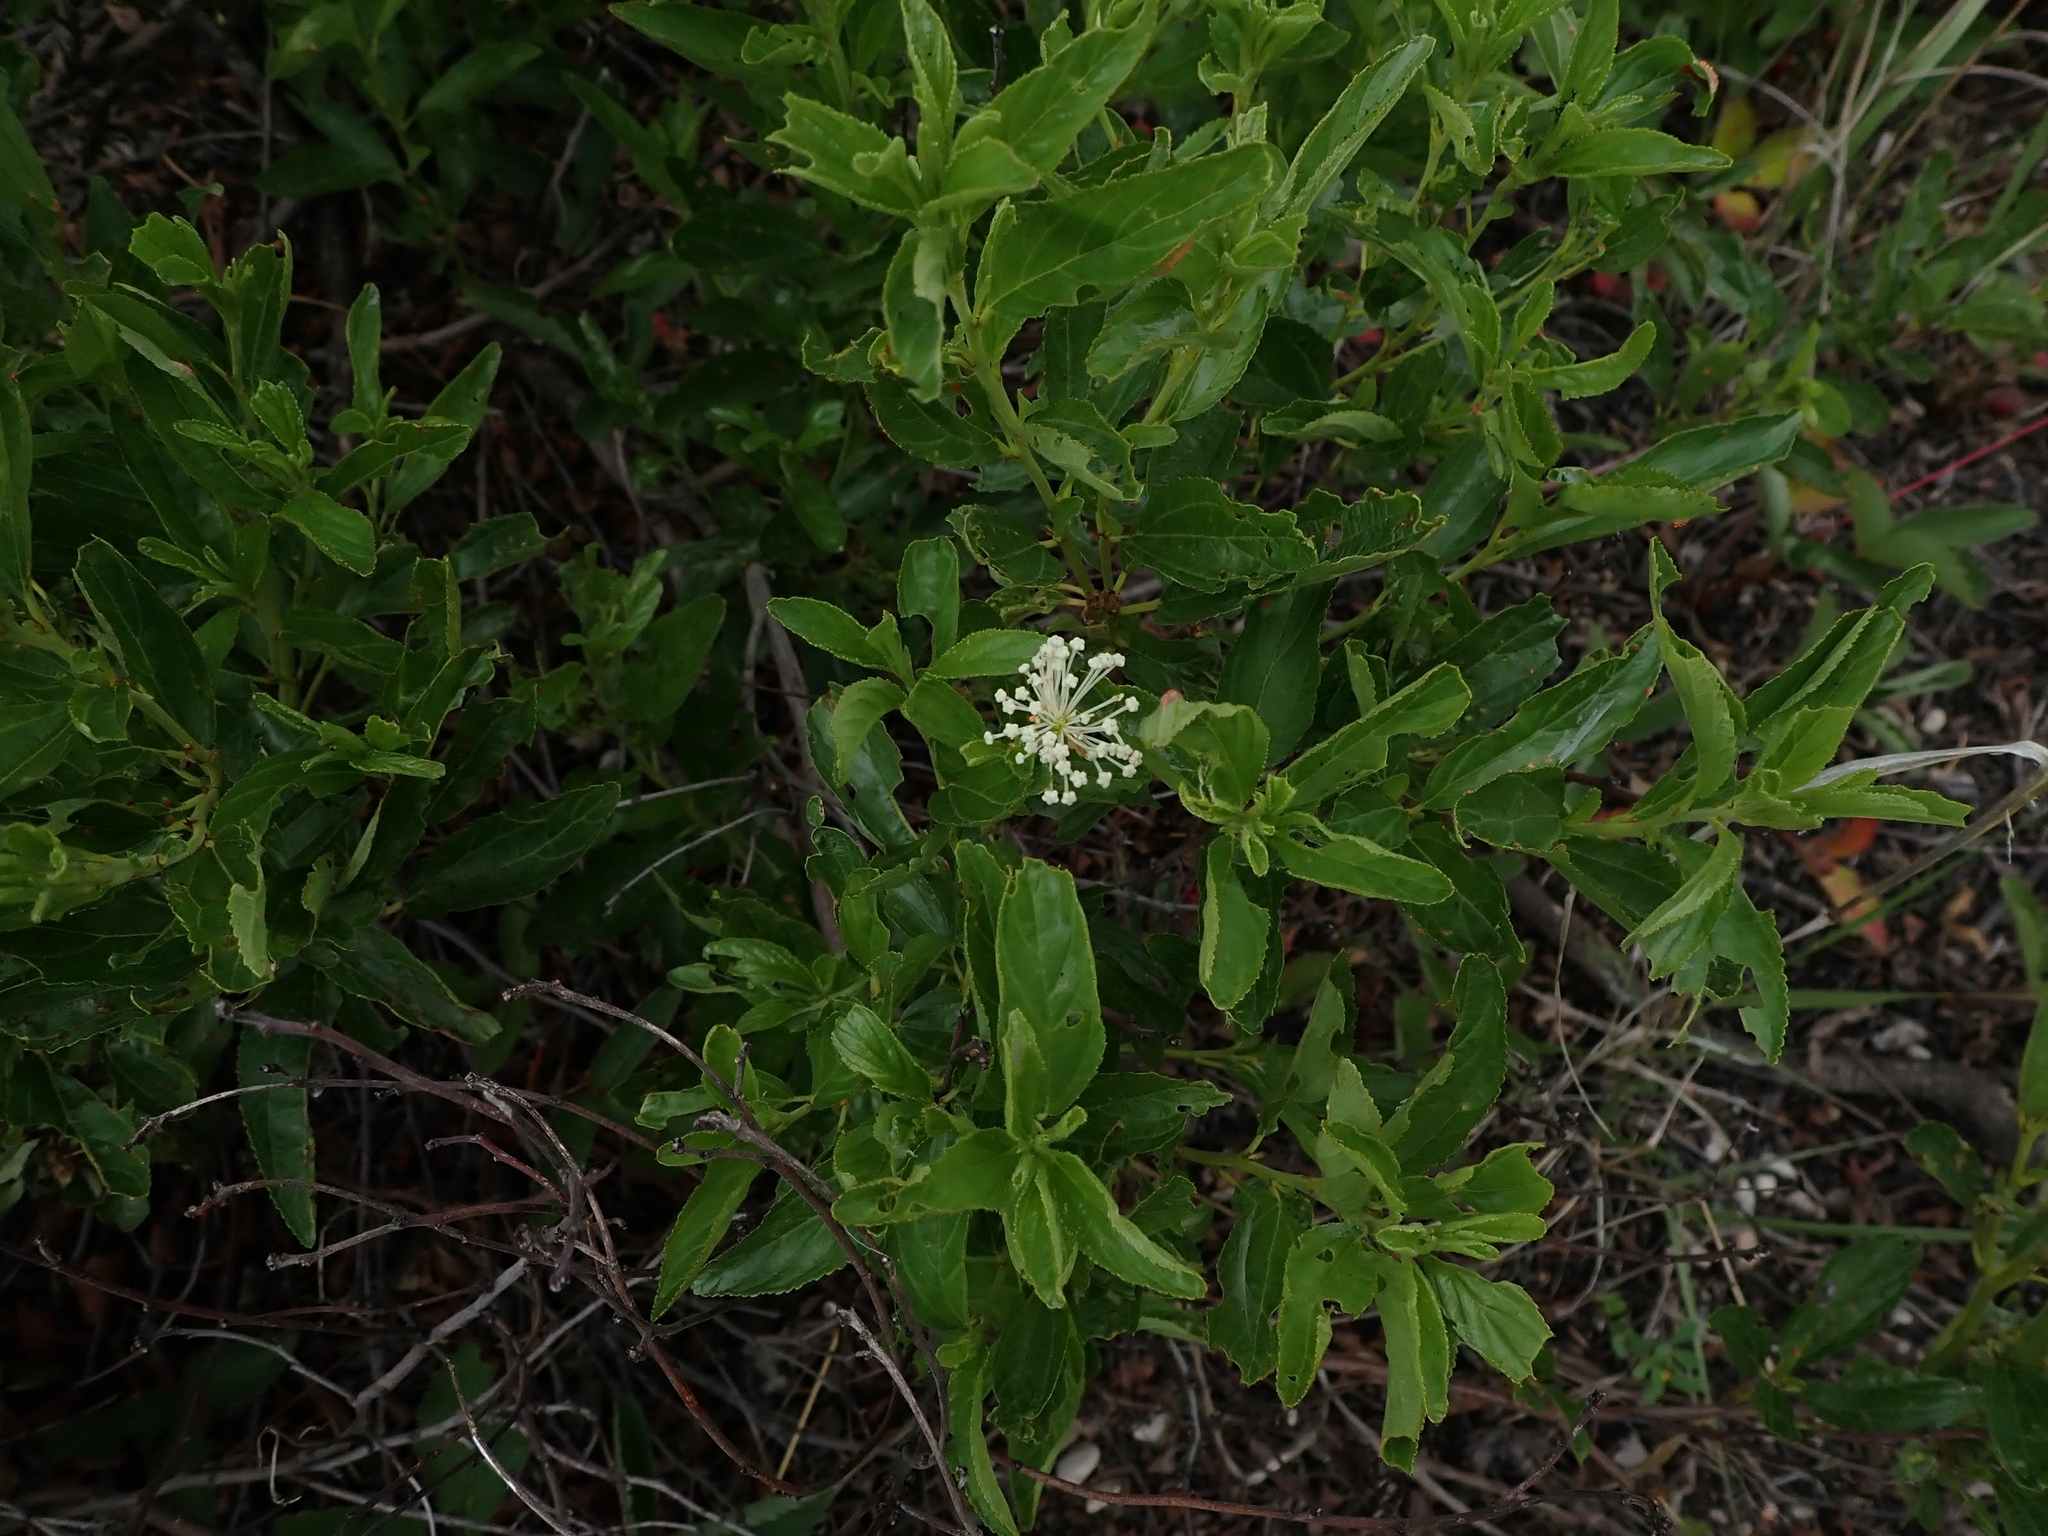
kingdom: Plantae
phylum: Tracheophyta
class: Magnoliopsida
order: Rosales
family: Rhamnaceae
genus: Ceanothus
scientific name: Ceanothus herbaceus
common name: Inland ceanothus
